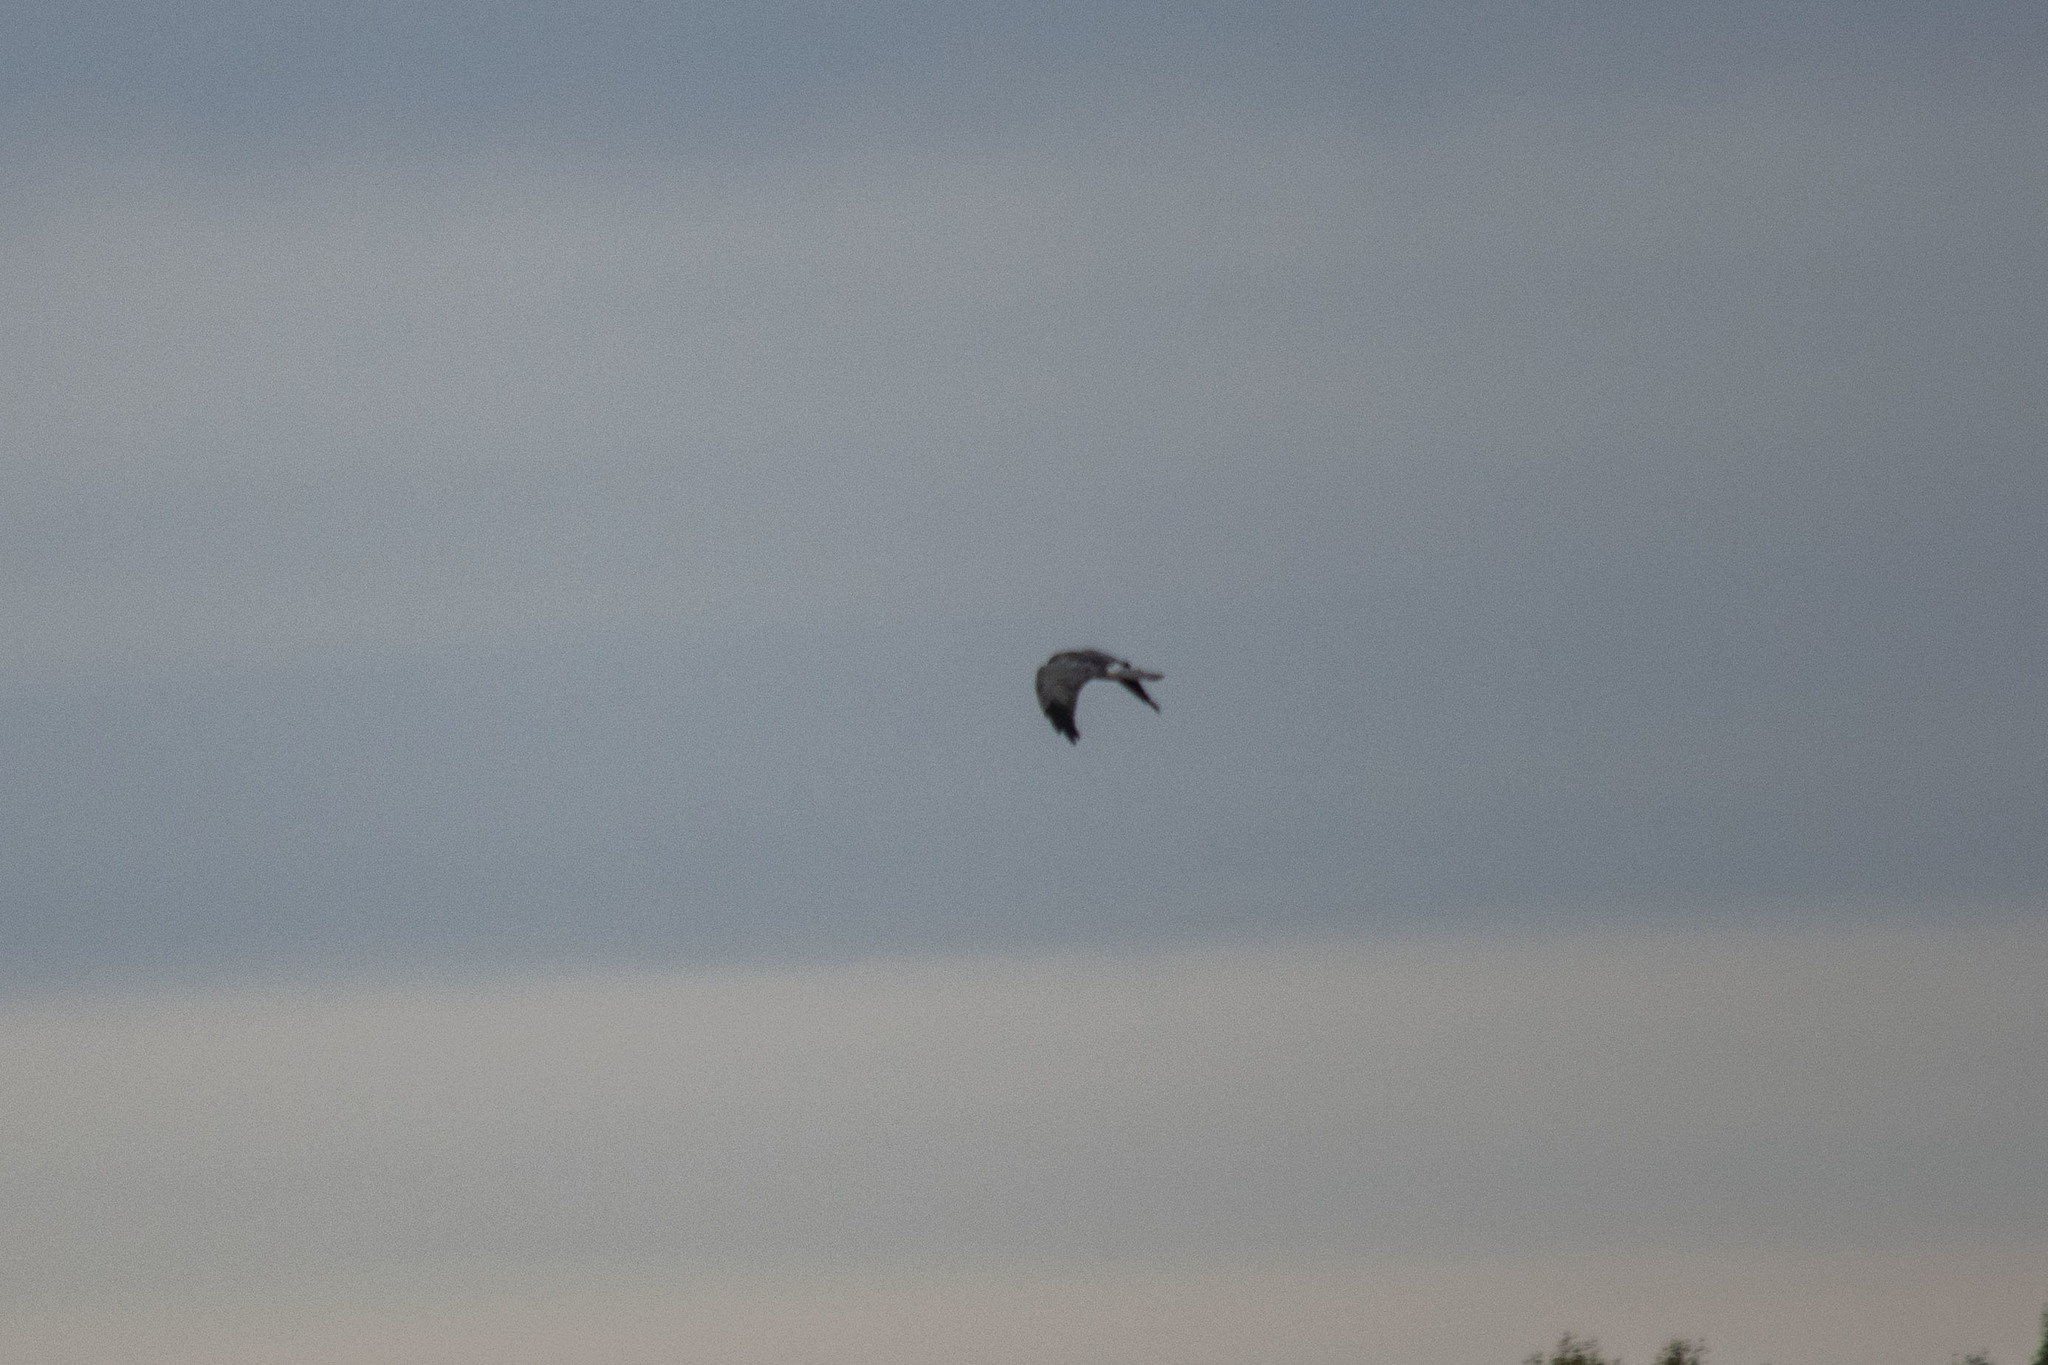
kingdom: Animalia
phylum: Chordata
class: Aves
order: Accipitriformes
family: Accipitridae
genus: Circus
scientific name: Circus cyaneus
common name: Hen harrier
